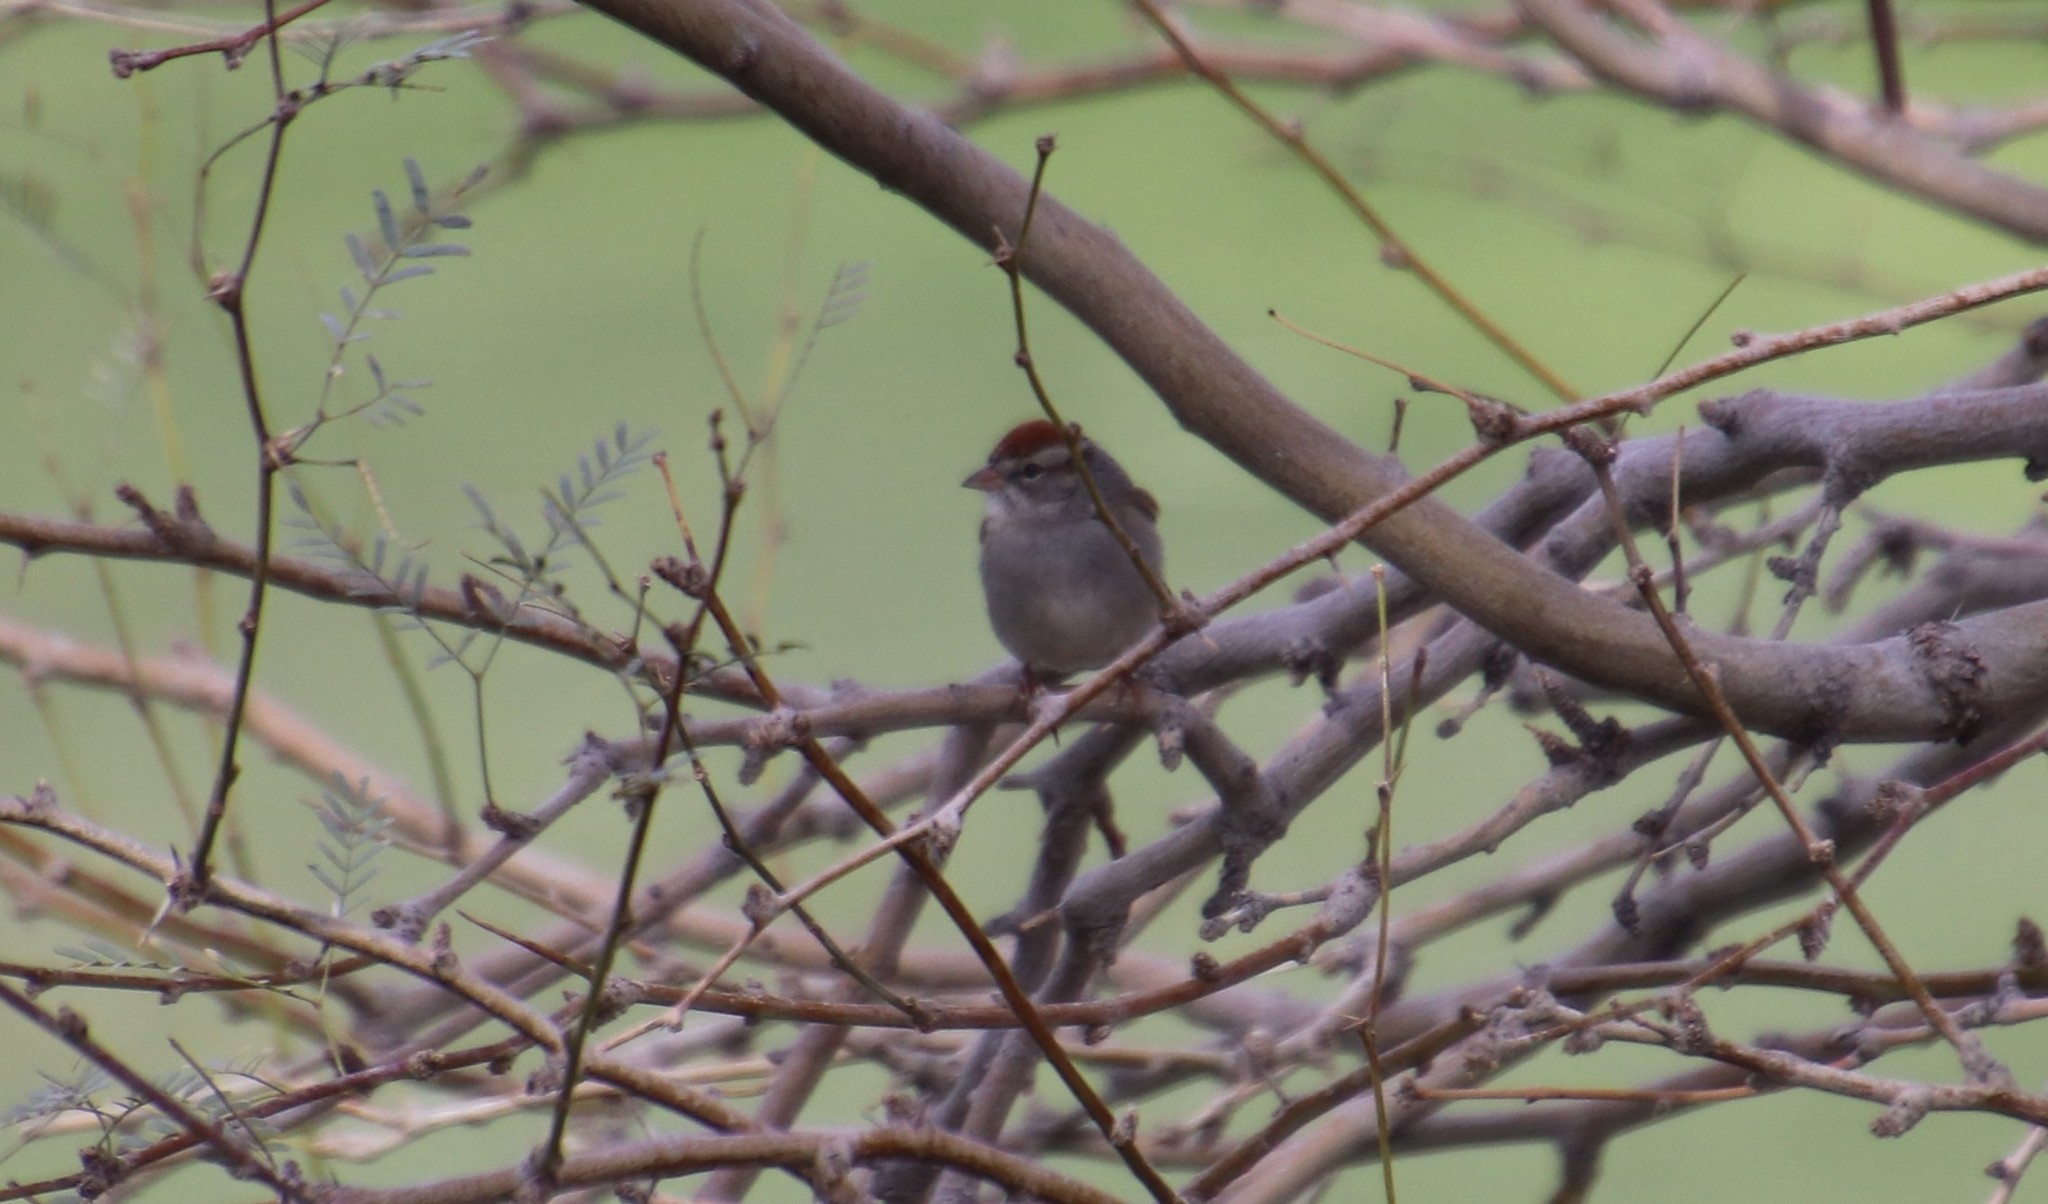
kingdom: Animalia
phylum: Chordata
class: Aves
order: Passeriformes
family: Passerellidae
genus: Spizella
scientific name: Spizella passerina
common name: Chipping sparrow
